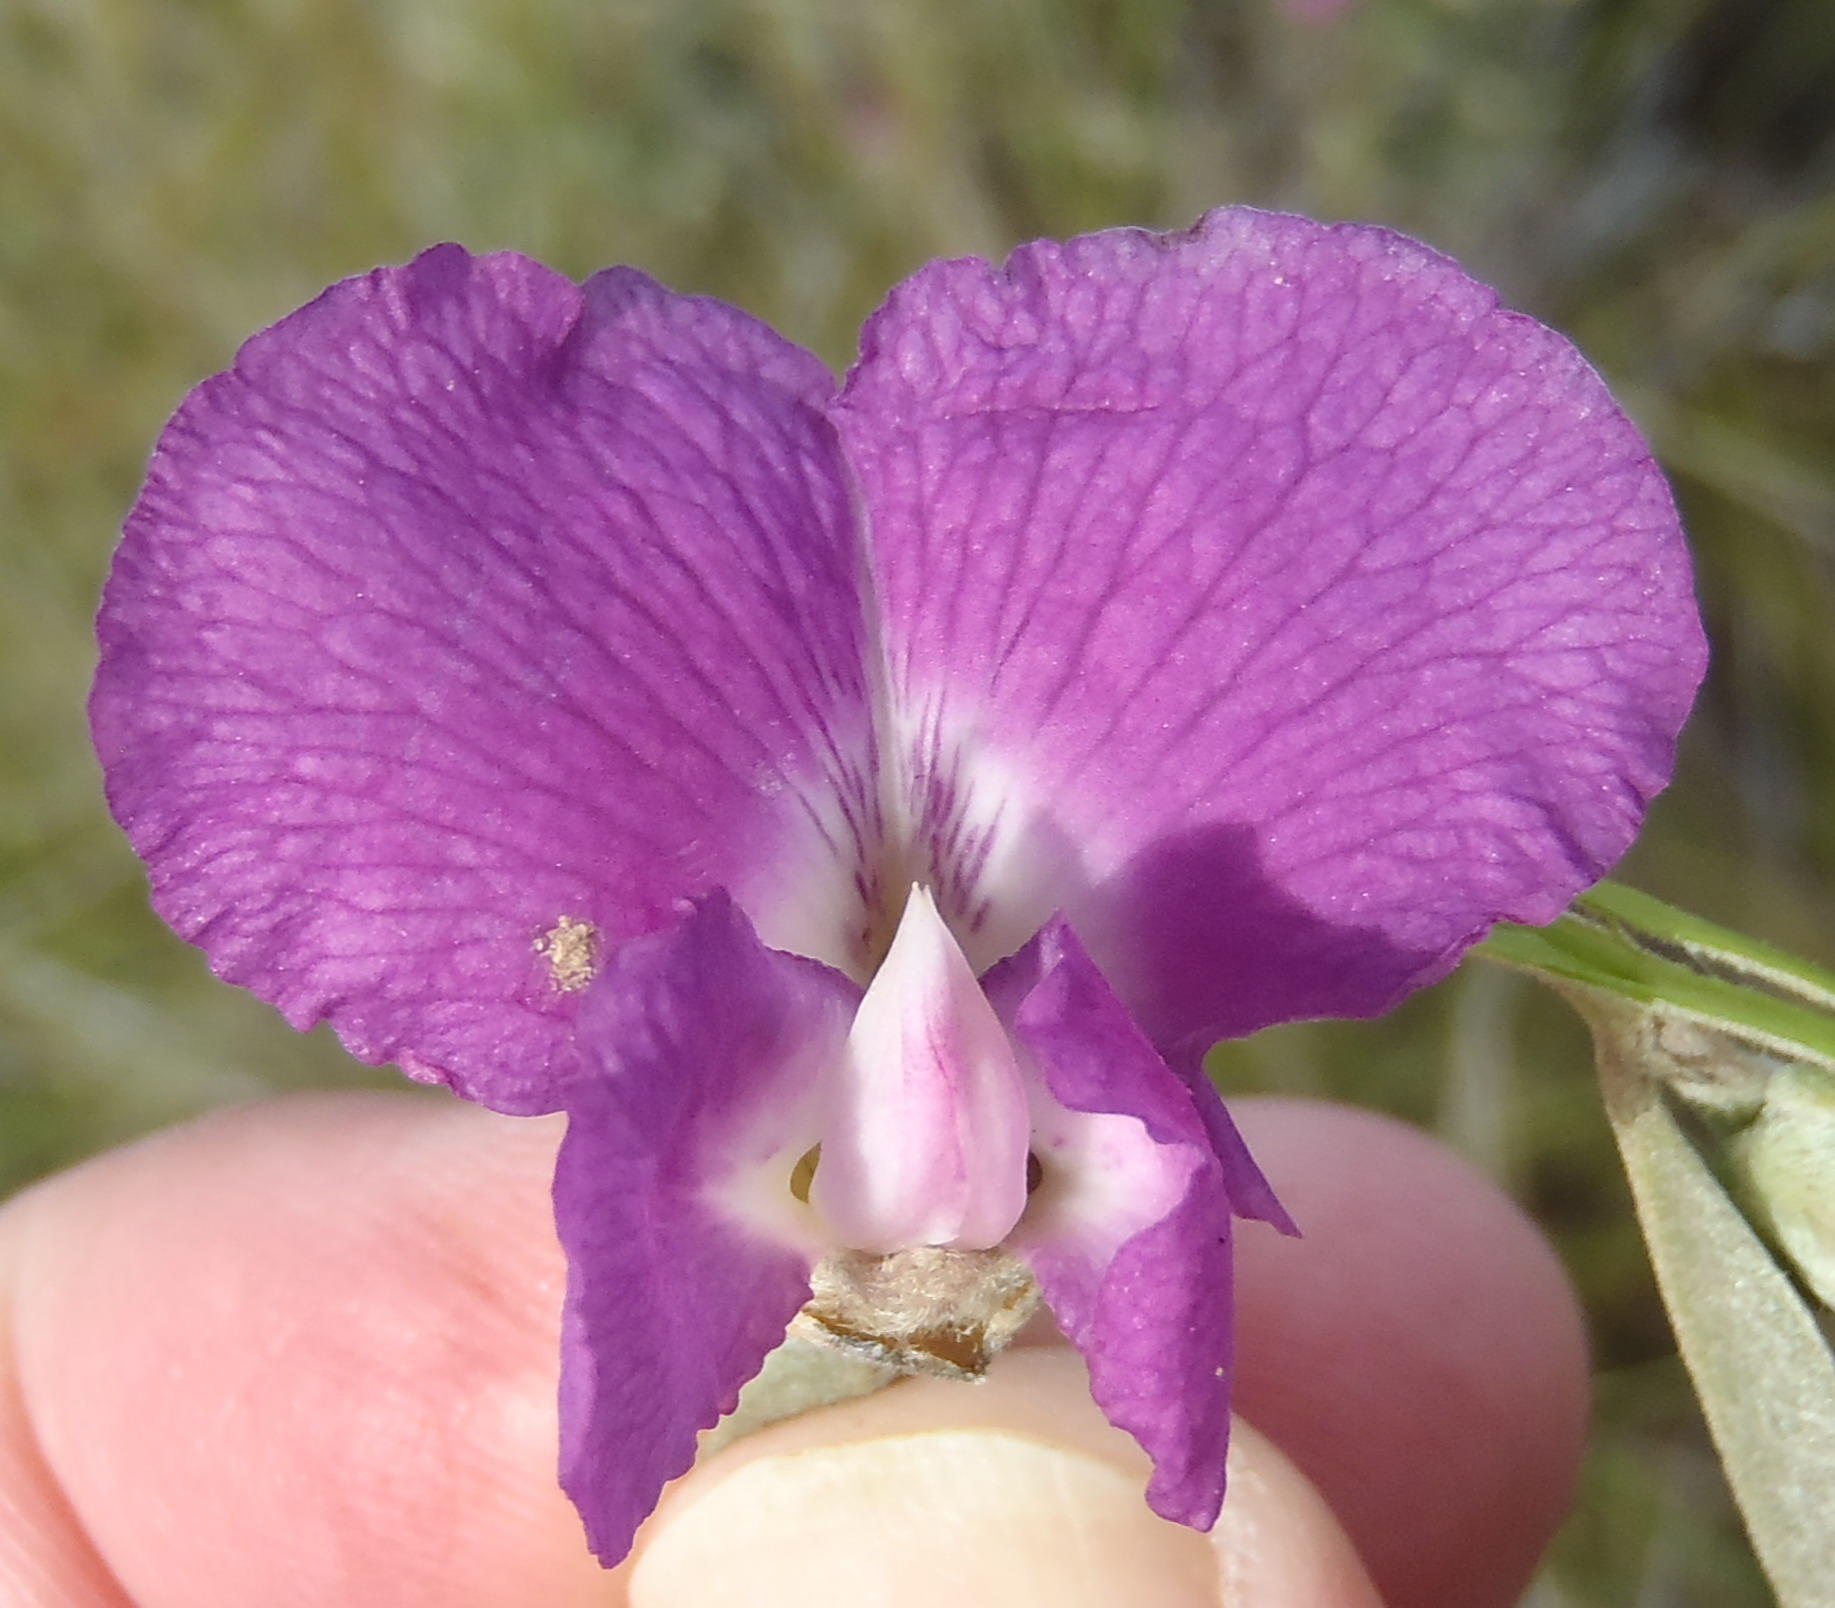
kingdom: Plantae
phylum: Tracheophyta
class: Magnoliopsida
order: Fabales
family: Fabaceae
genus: Podalyria
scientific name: Podalyria burchellii
